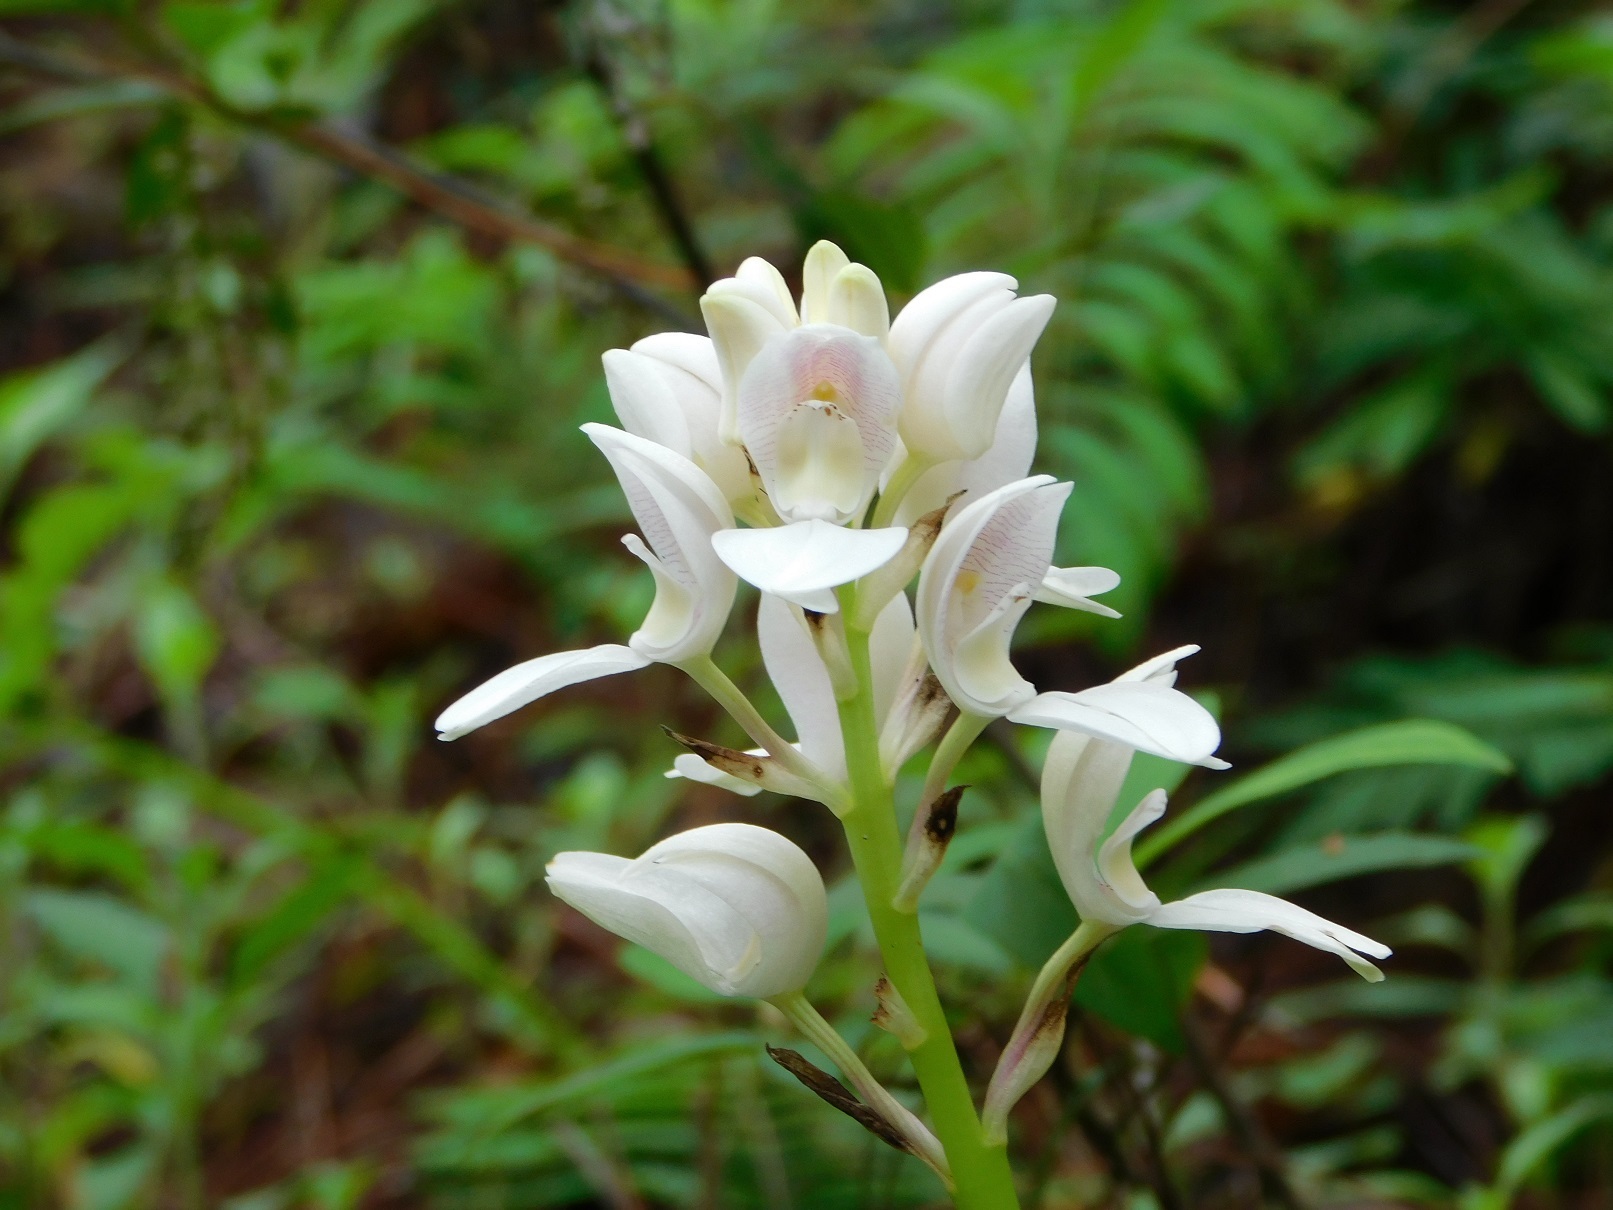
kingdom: Plantae
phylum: Tracheophyta
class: Liliopsida
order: Asparagales
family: Orchidaceae
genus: Govenia
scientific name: Govenia liliacea
